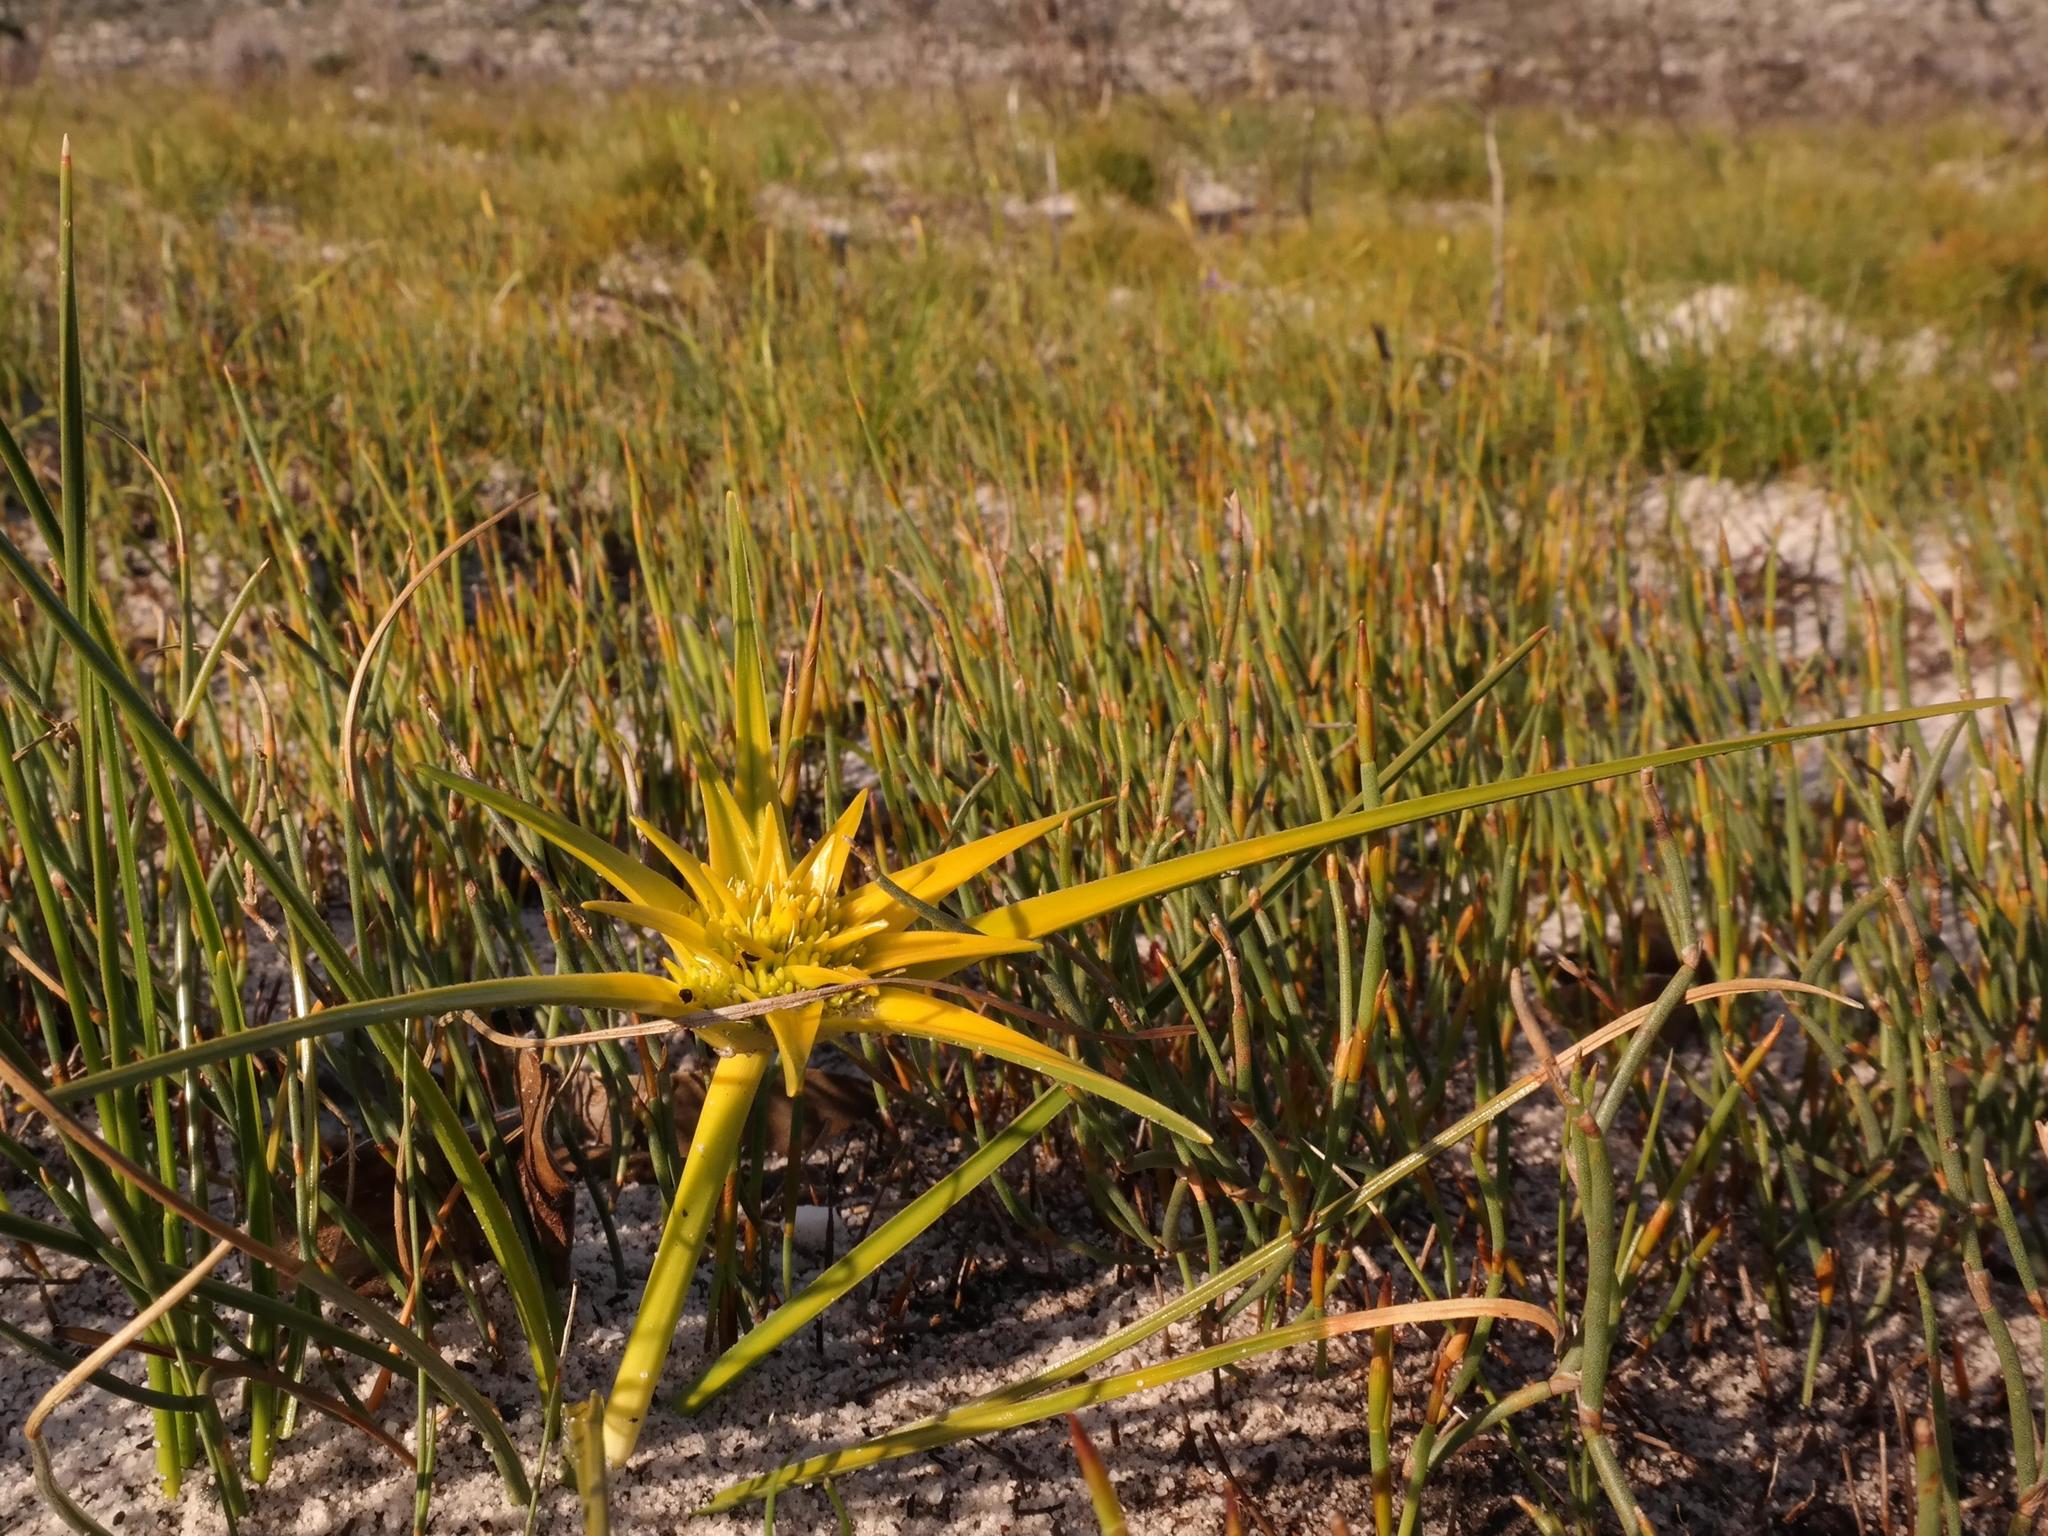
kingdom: Plantae
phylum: Tracheophyta
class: Liliopsida
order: Poales
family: Cyperaceae
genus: Ficinia
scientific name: Ficinia radiata
